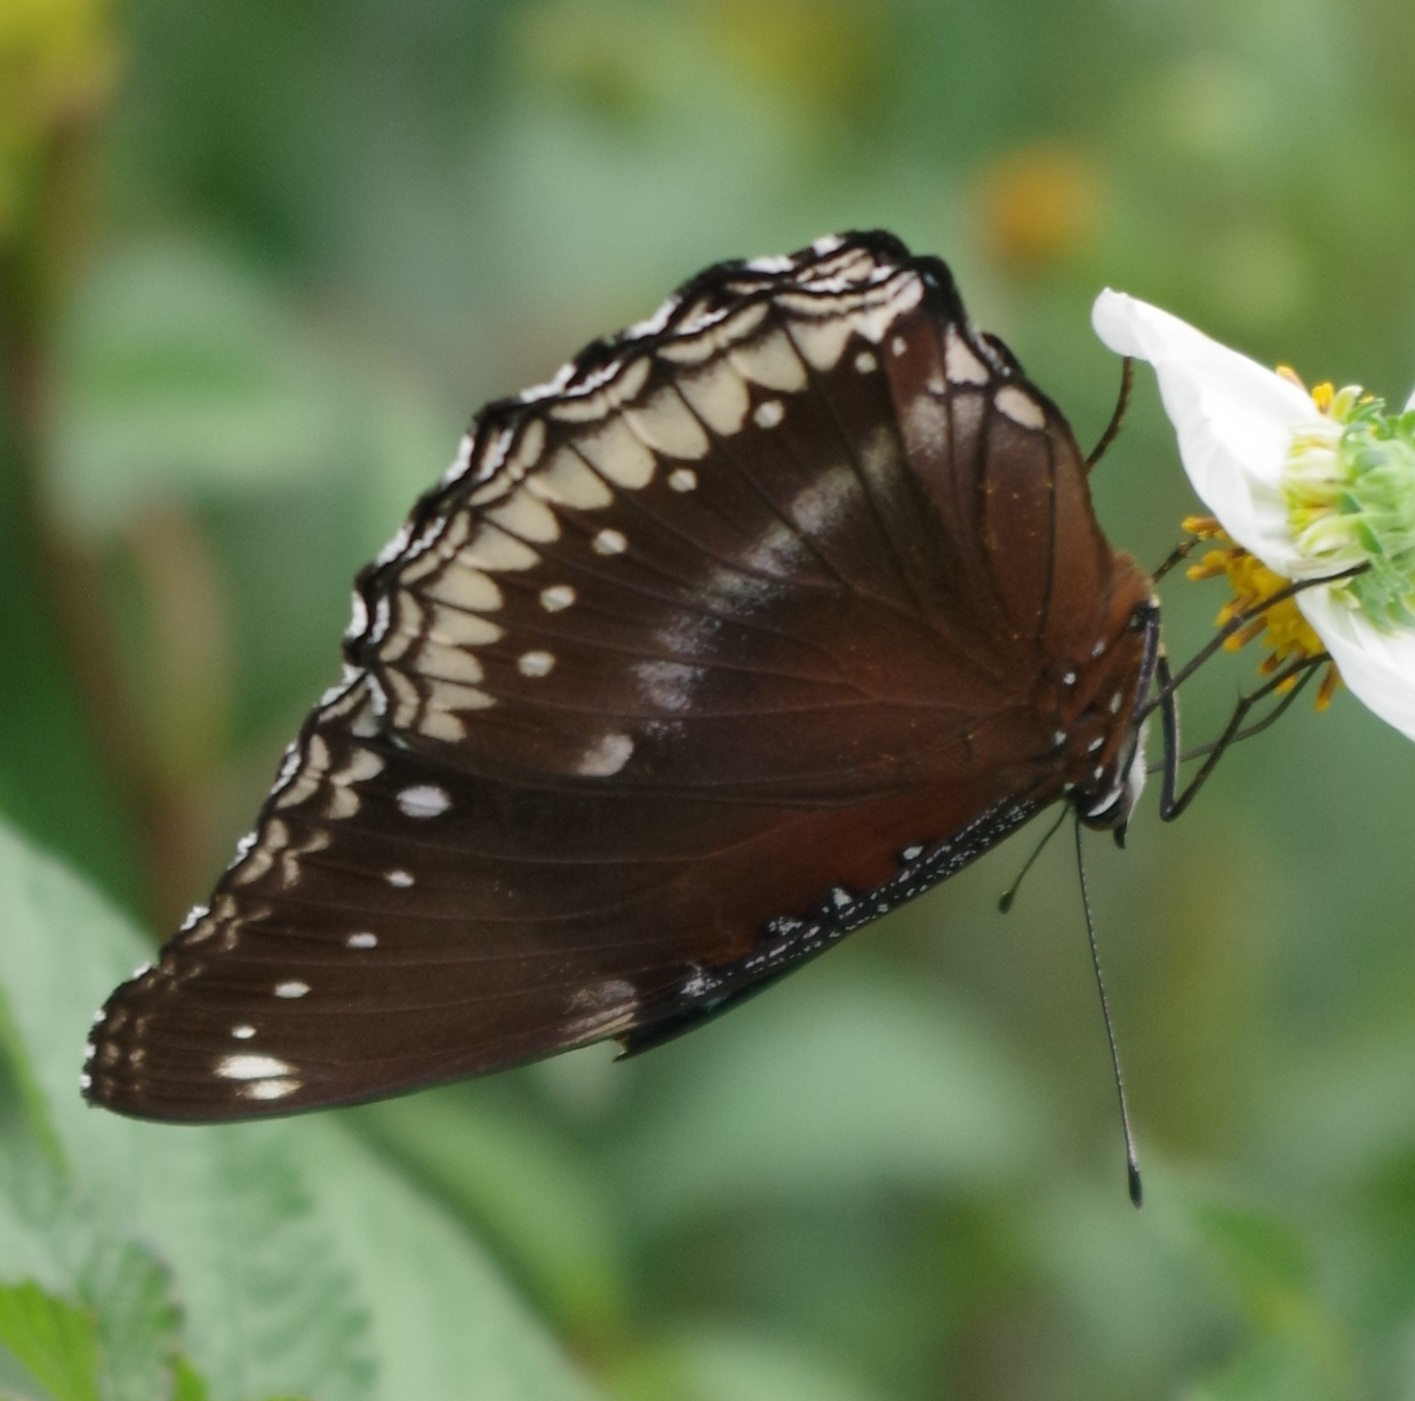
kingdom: Animalia
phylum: Arthropoda
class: Insecta
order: Lepidoptera
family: Nymphalidae
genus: Hypolimnas
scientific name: Hypolimnas bolina
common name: Great eggfly
